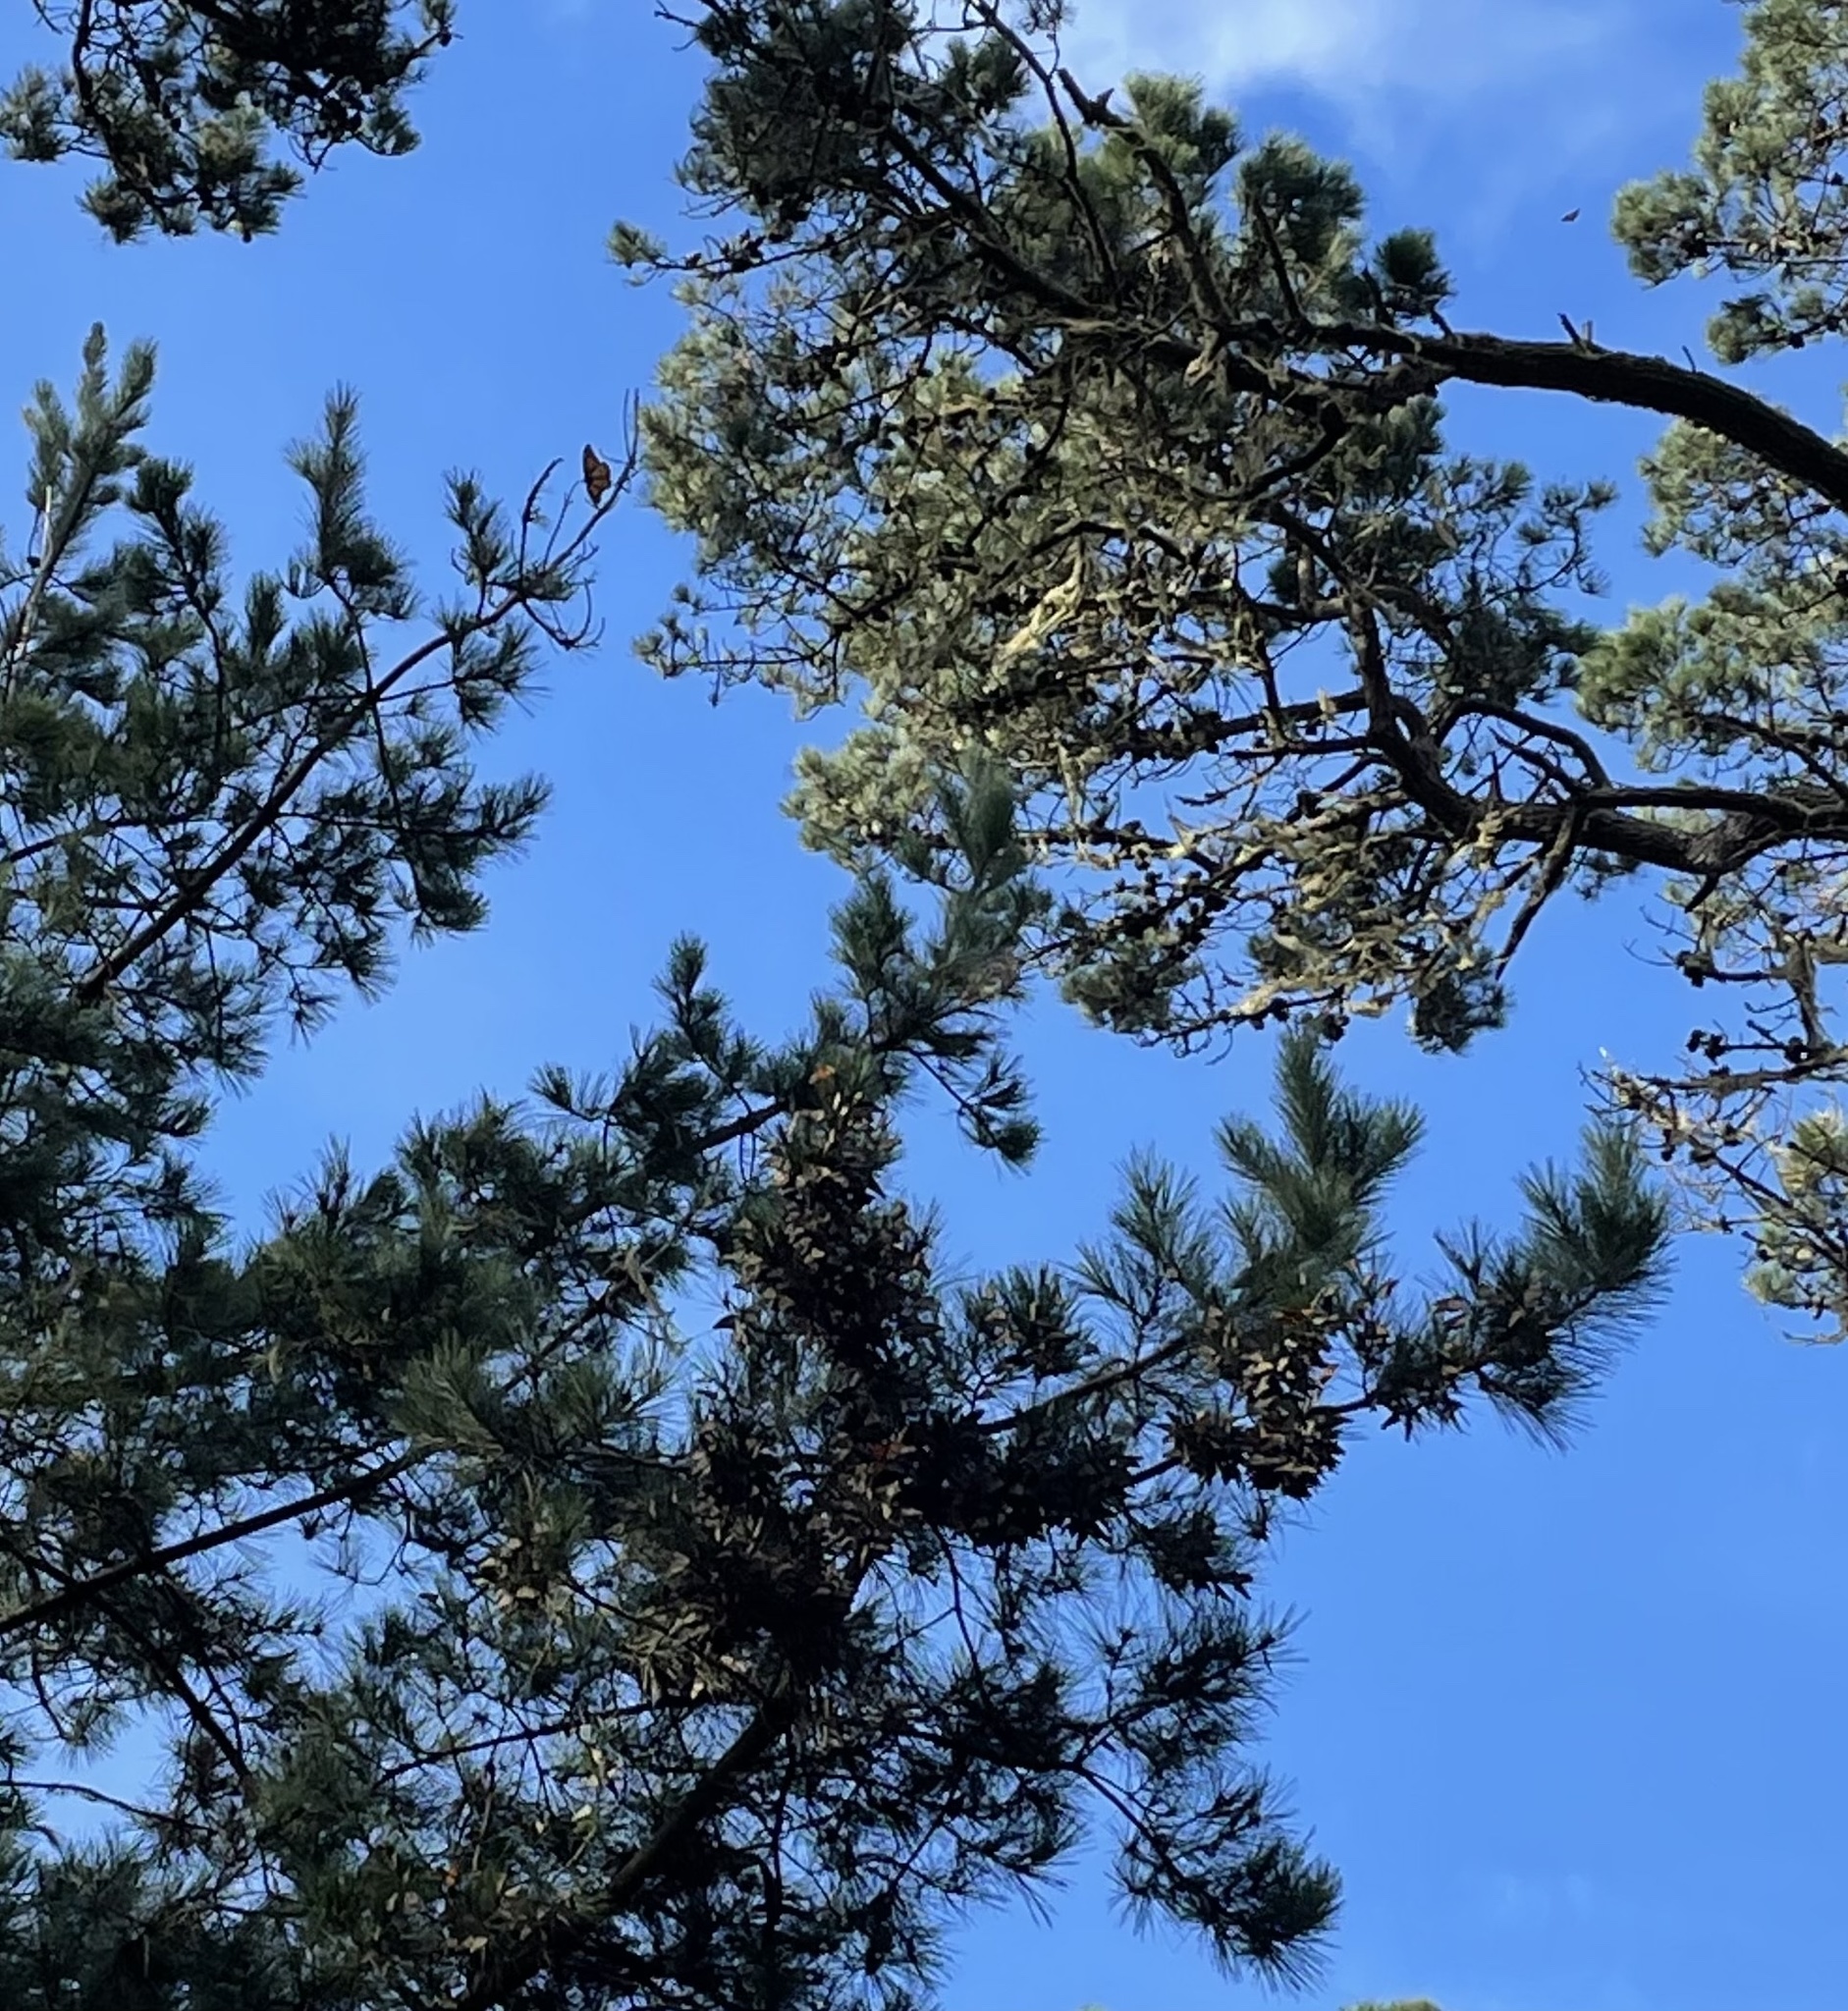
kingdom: Animalia
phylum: Arthropoda
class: Insecta
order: Lepidoptera
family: Nymphalidae
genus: Danaus
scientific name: Danaus plexippus
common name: Monarch
